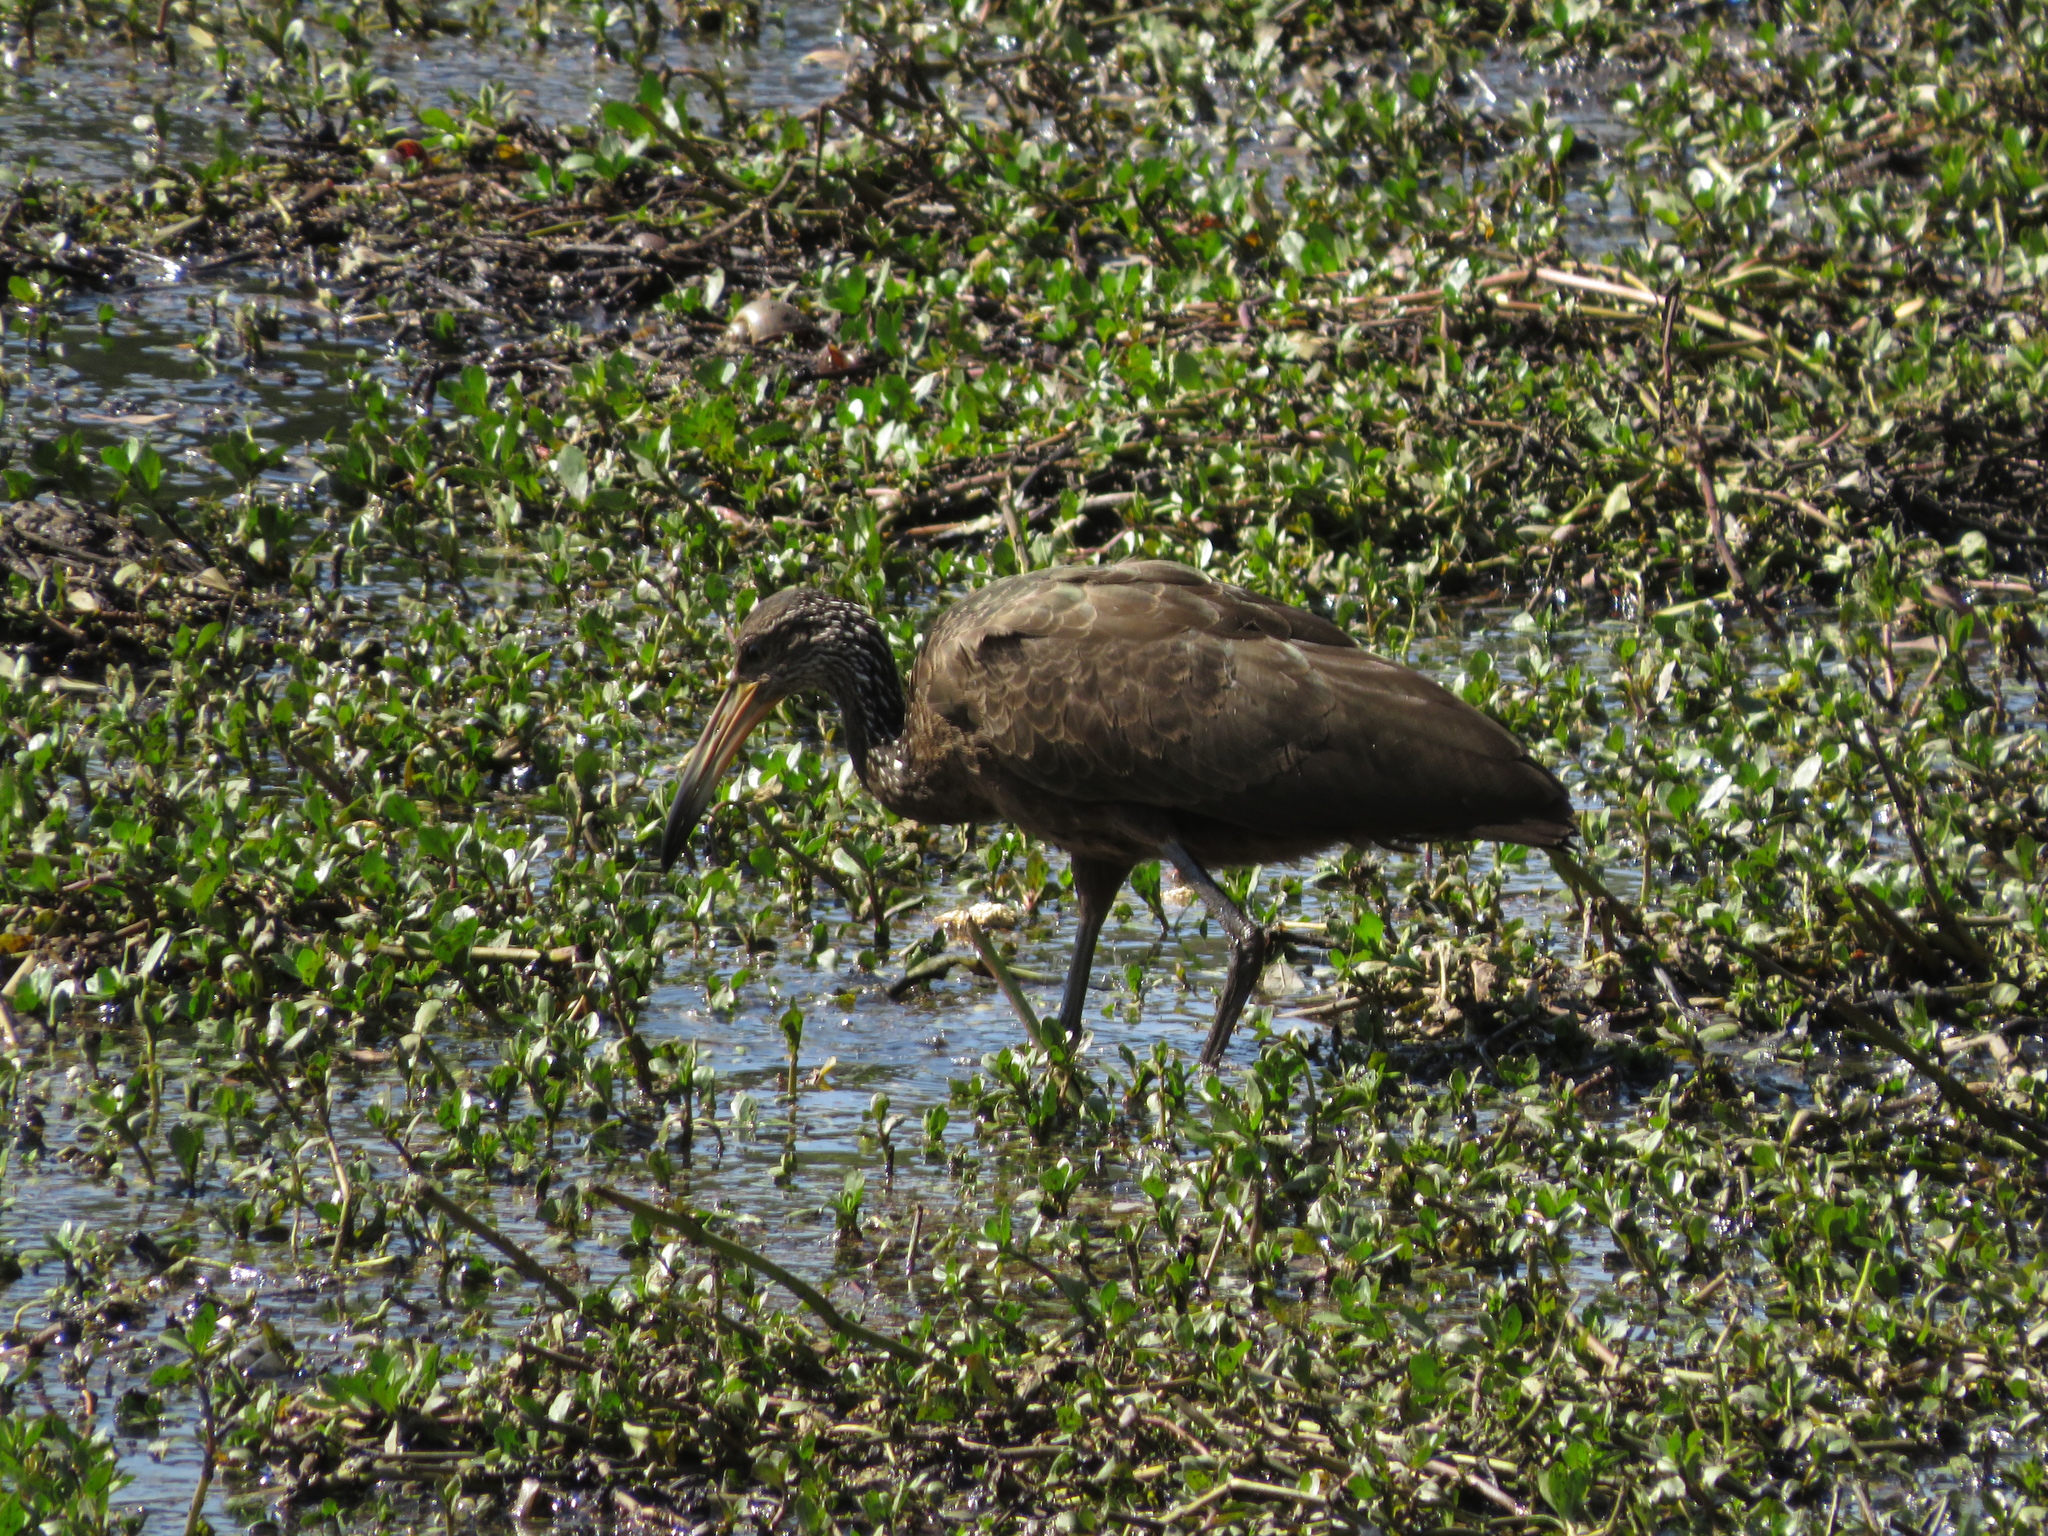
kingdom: Animalia
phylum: Chordata
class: Aves
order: Gruiformes
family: Aramidae
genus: Aramus
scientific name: Aramus guarauna
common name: Limpkin
